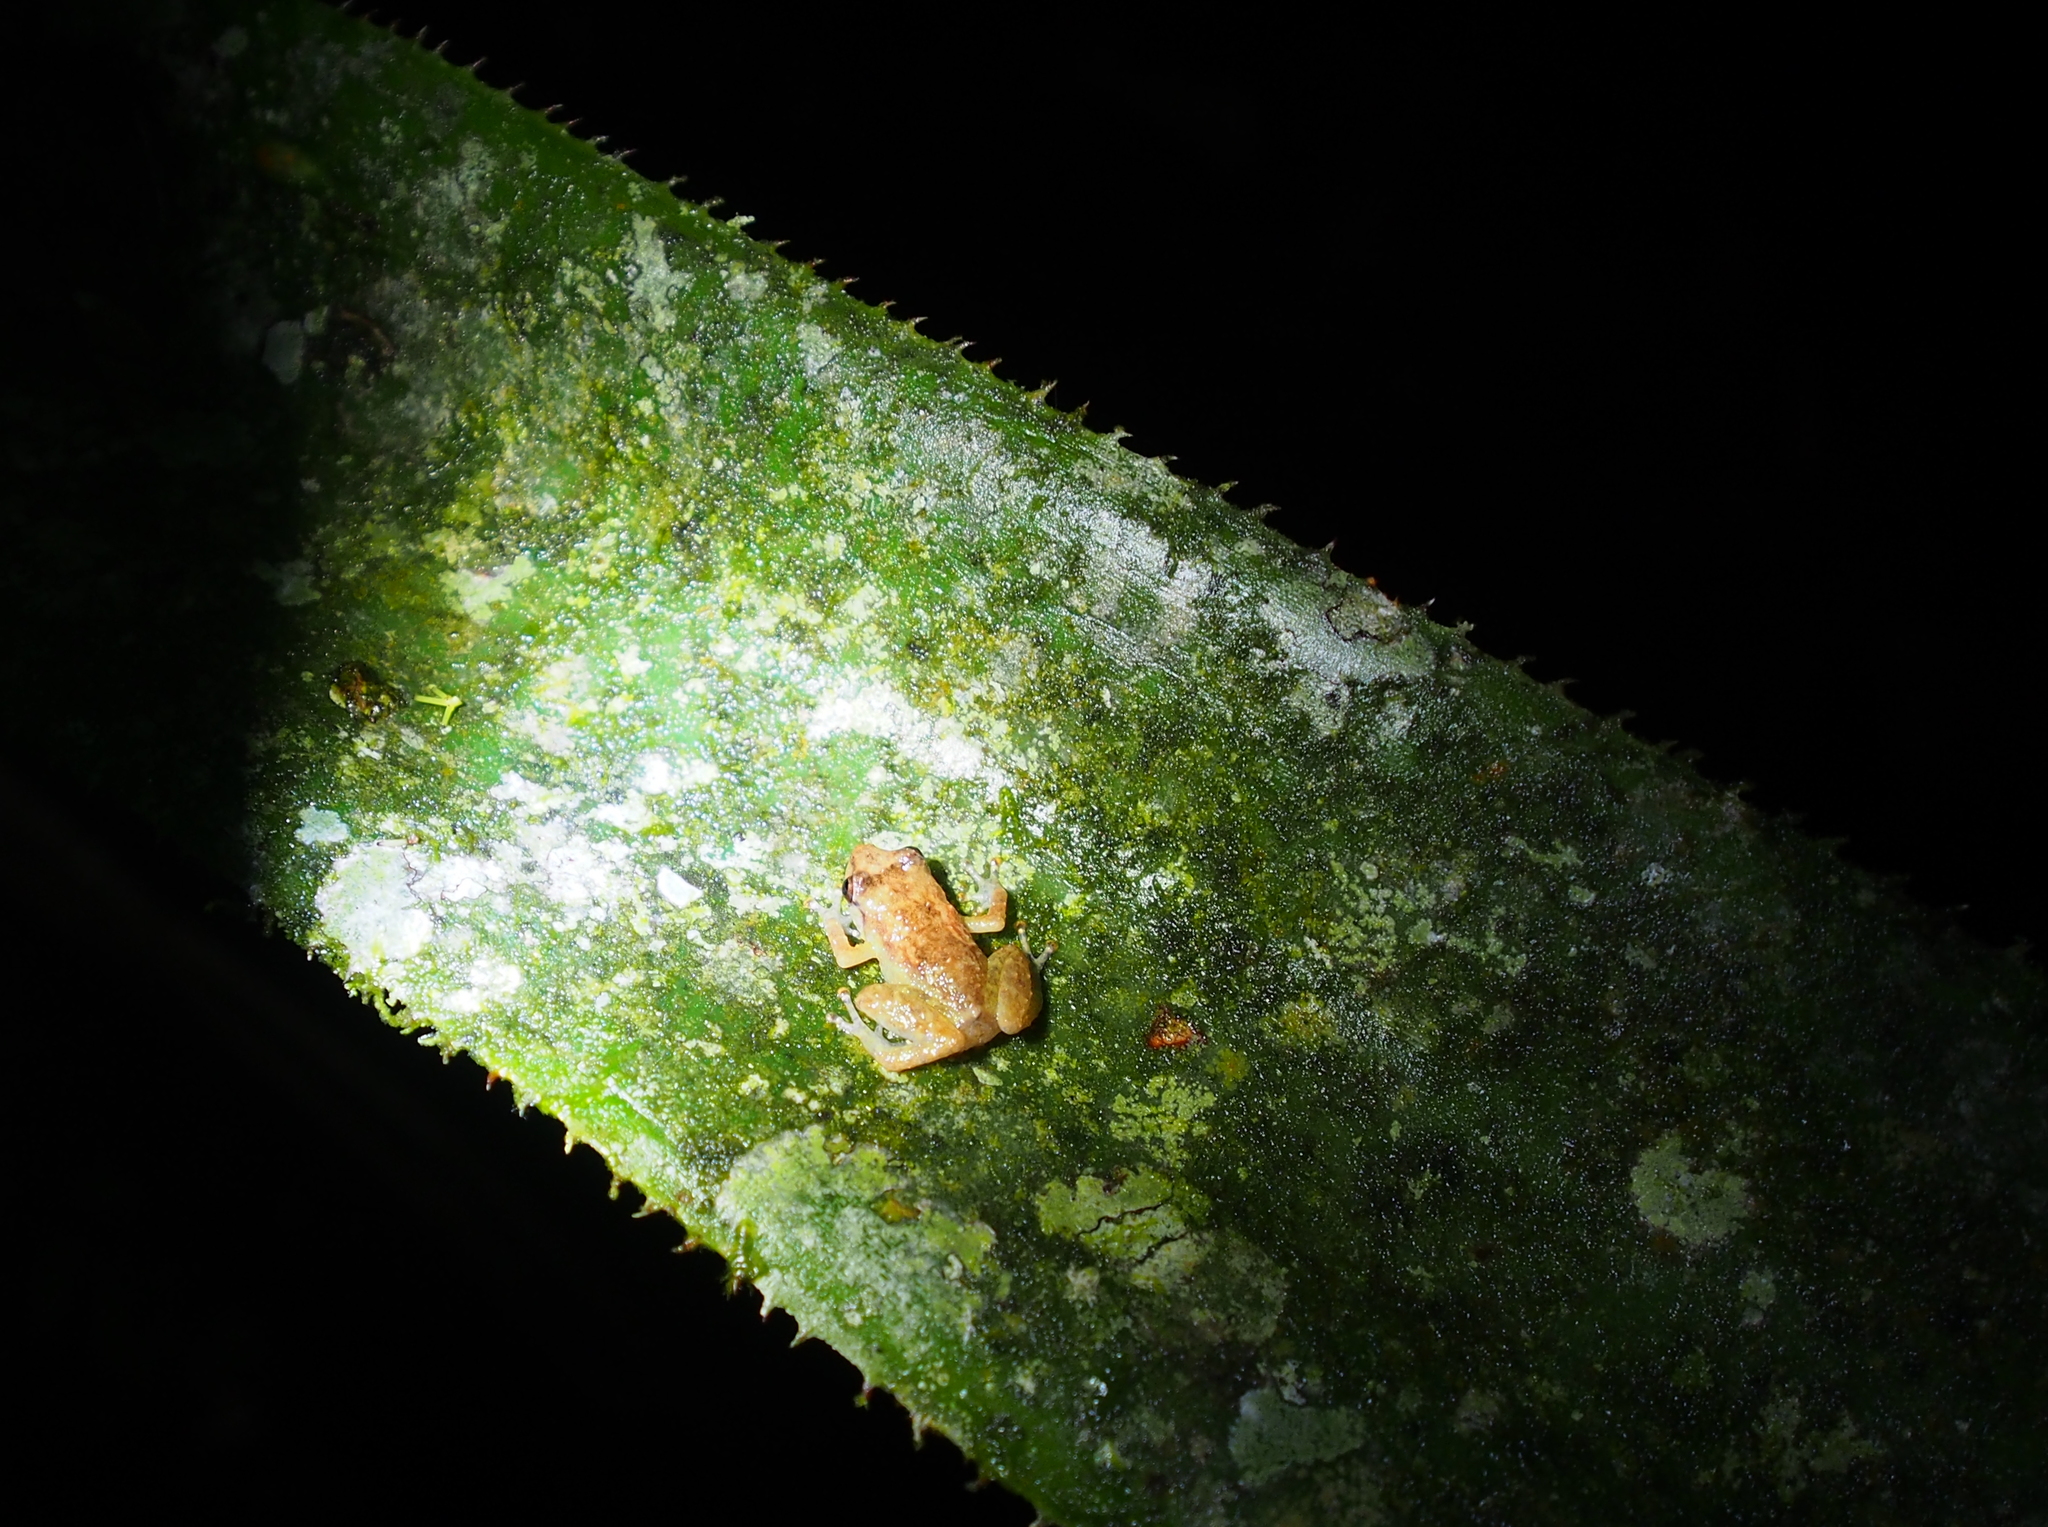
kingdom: Animalia
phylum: Chordata
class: Amphibia
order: Anura
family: Eleutherodactylidae
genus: Diasporus
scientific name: Diasporus diastema
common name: Caretta robber frog
